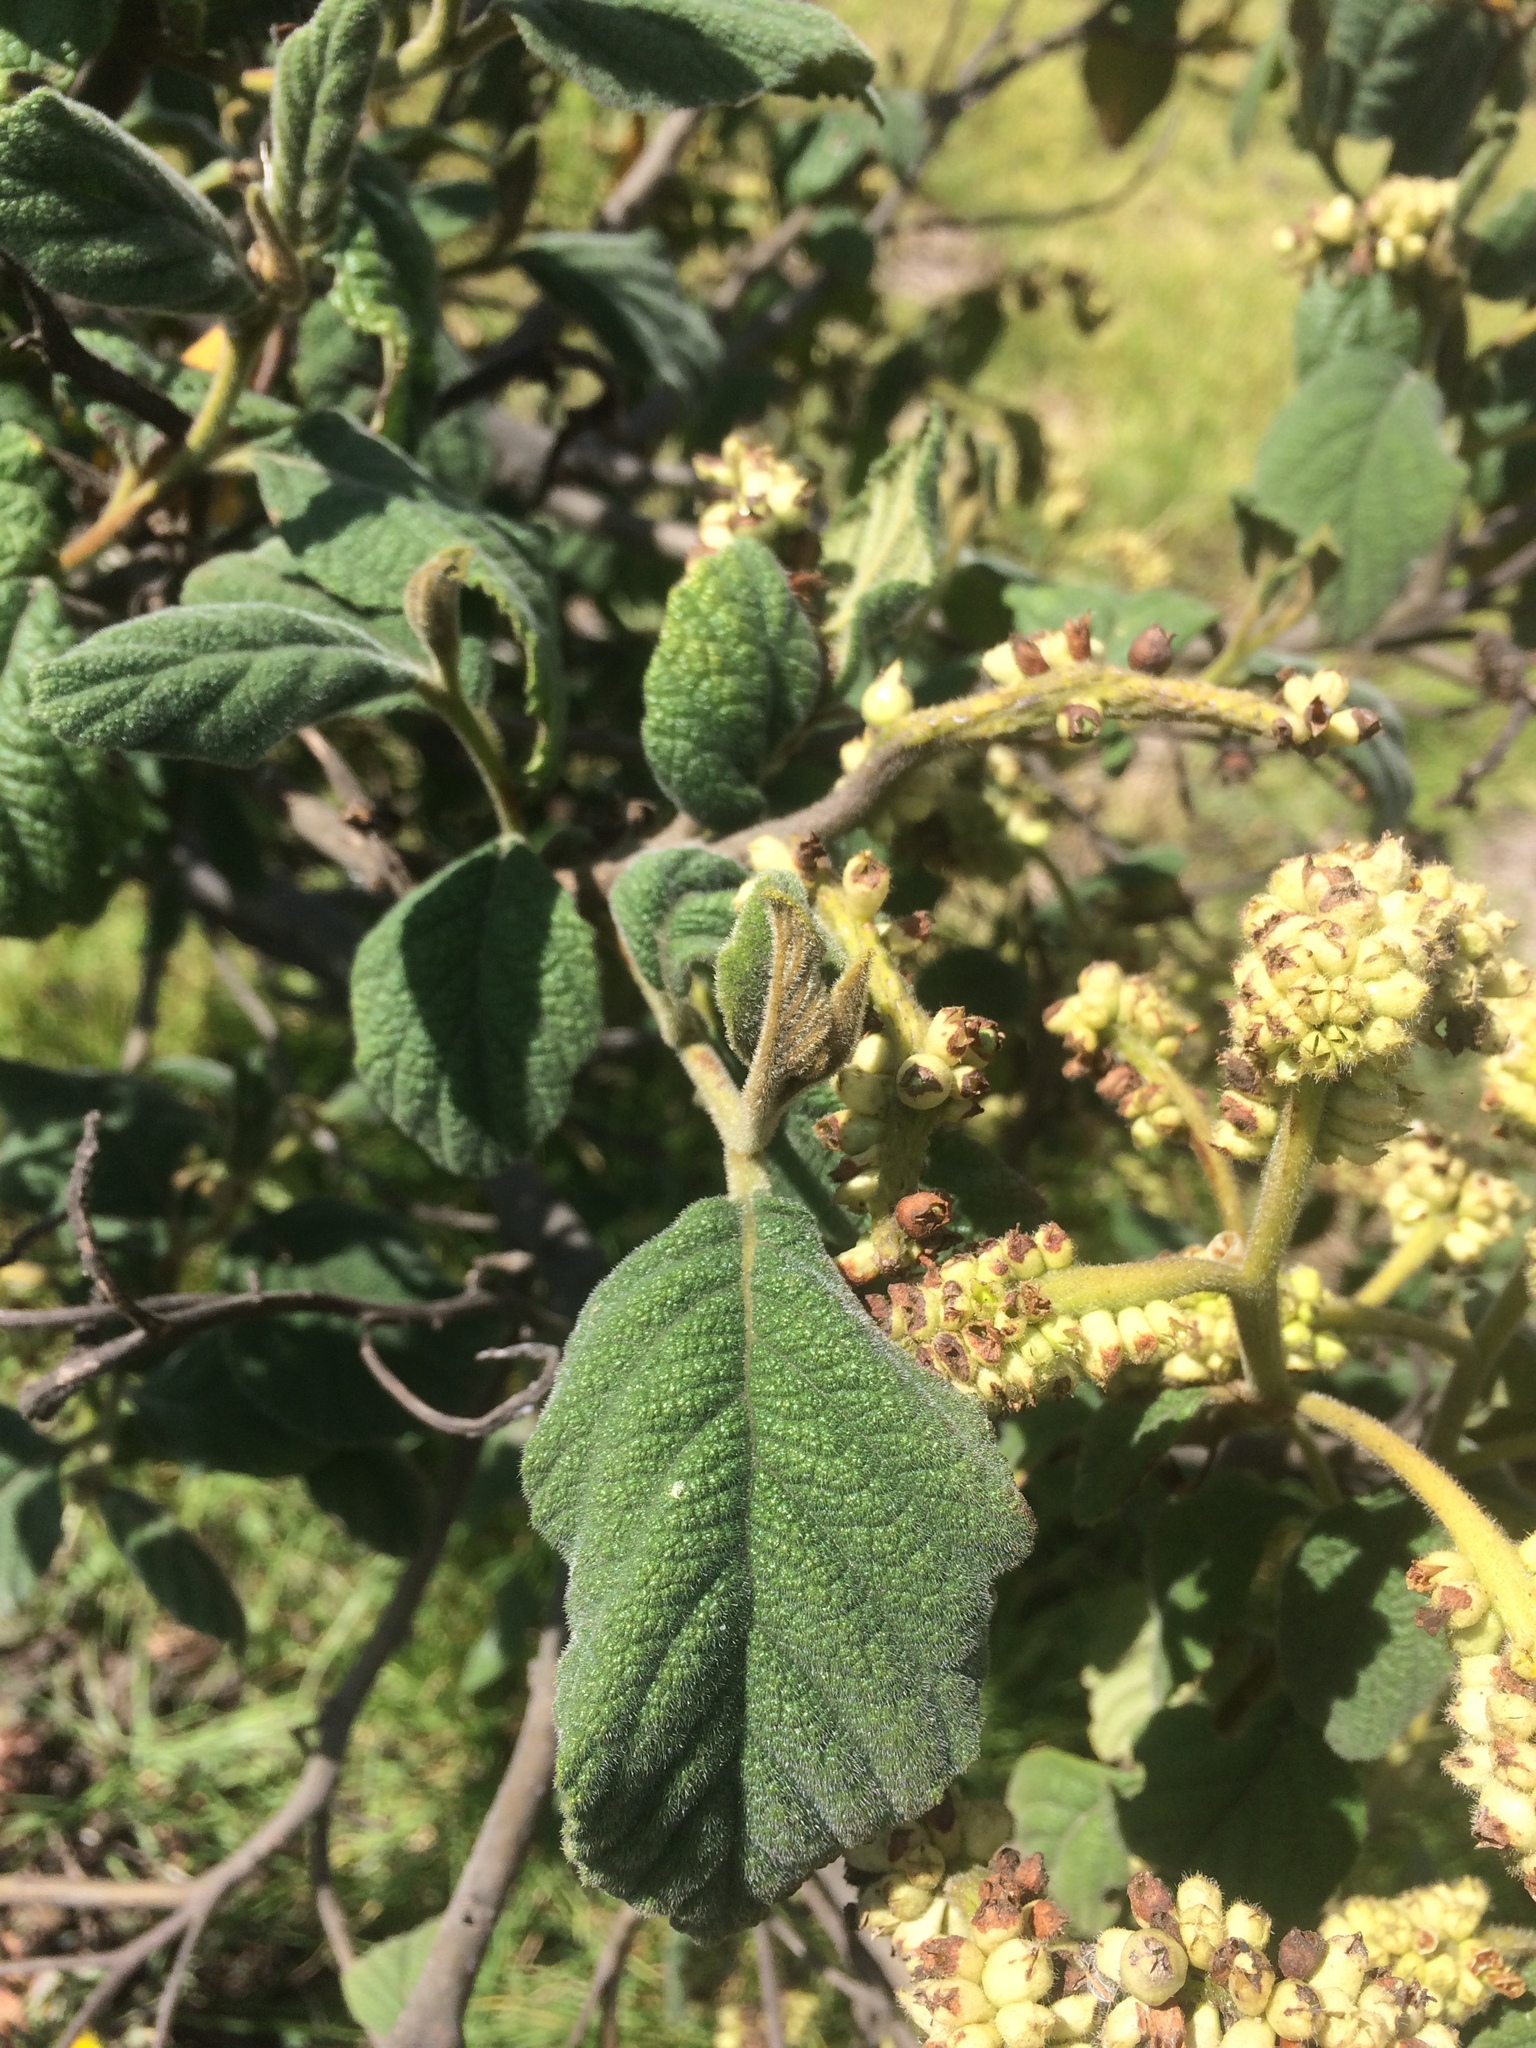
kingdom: Plantae
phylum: Tracheophyta
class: Magnoliopsida
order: Boraginales
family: Cordiaceae
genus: Varronia
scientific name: Varronia cylindrostachya
